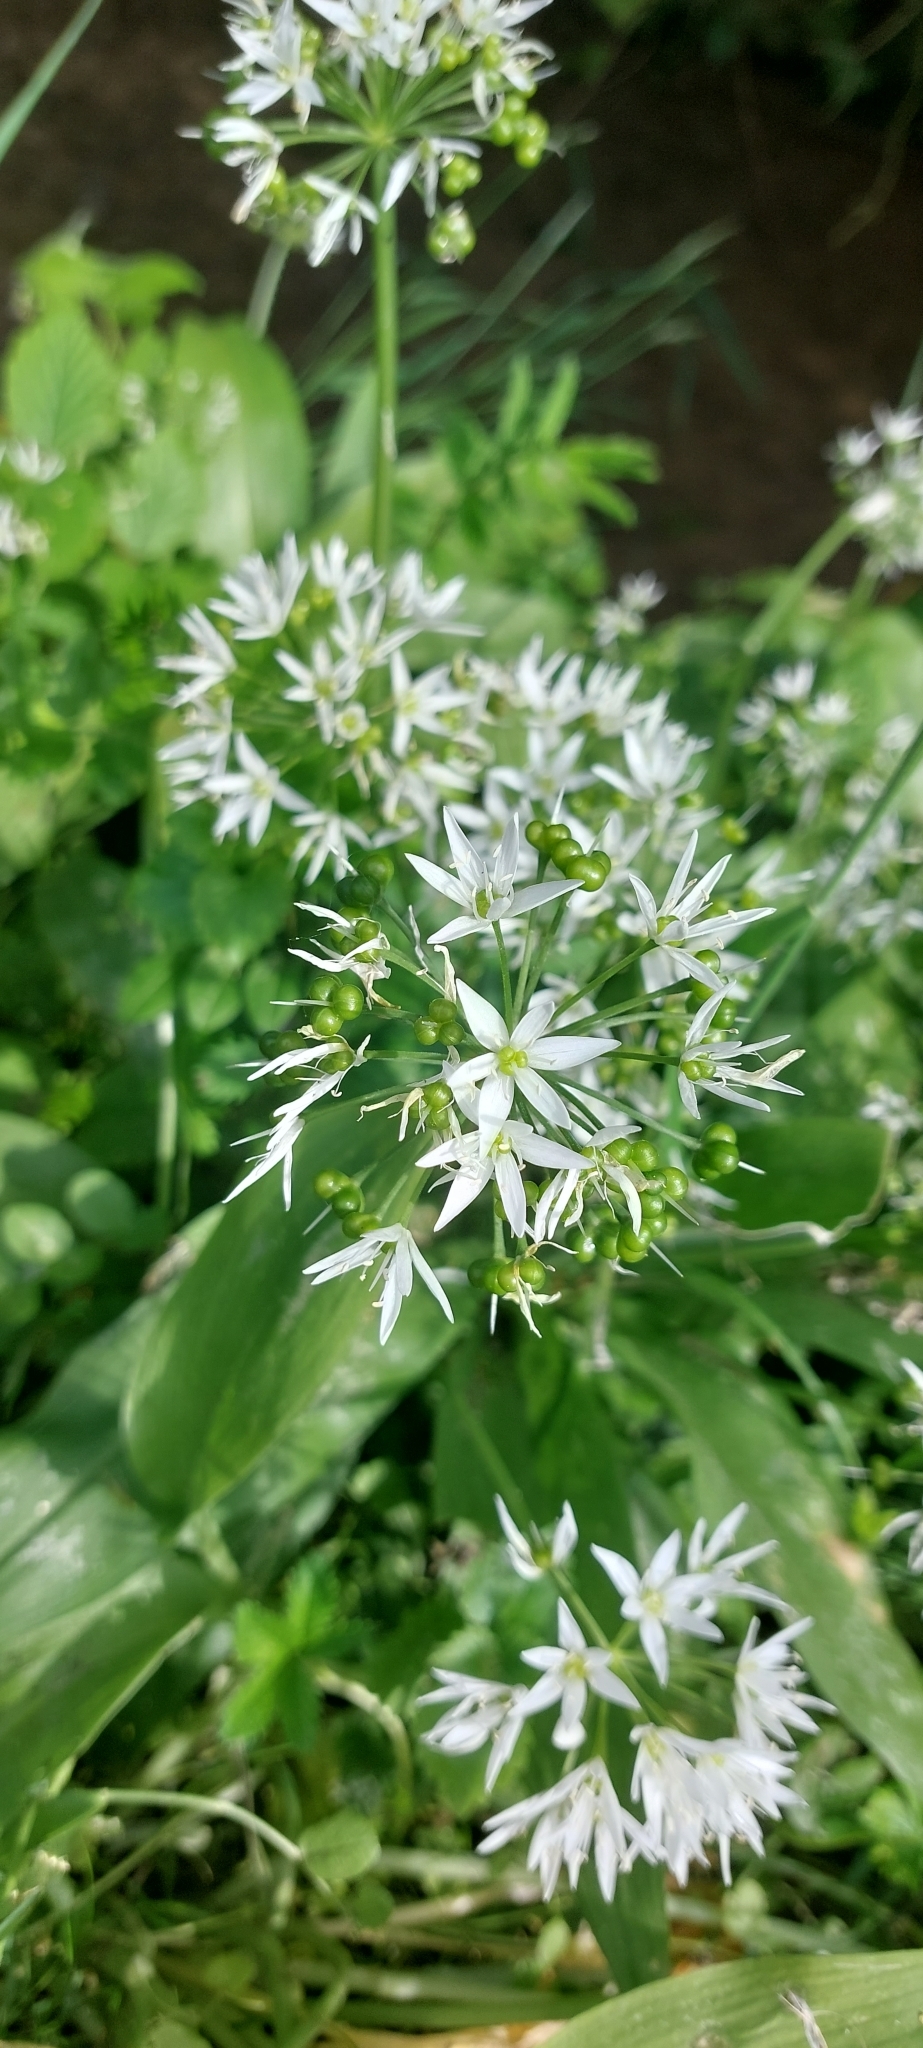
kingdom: Plantae
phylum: Tracheophyta
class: Liliopsida
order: Asparagales
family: Amaryllidaceae
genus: Allium
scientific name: Allium ursinum
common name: Ramsons
